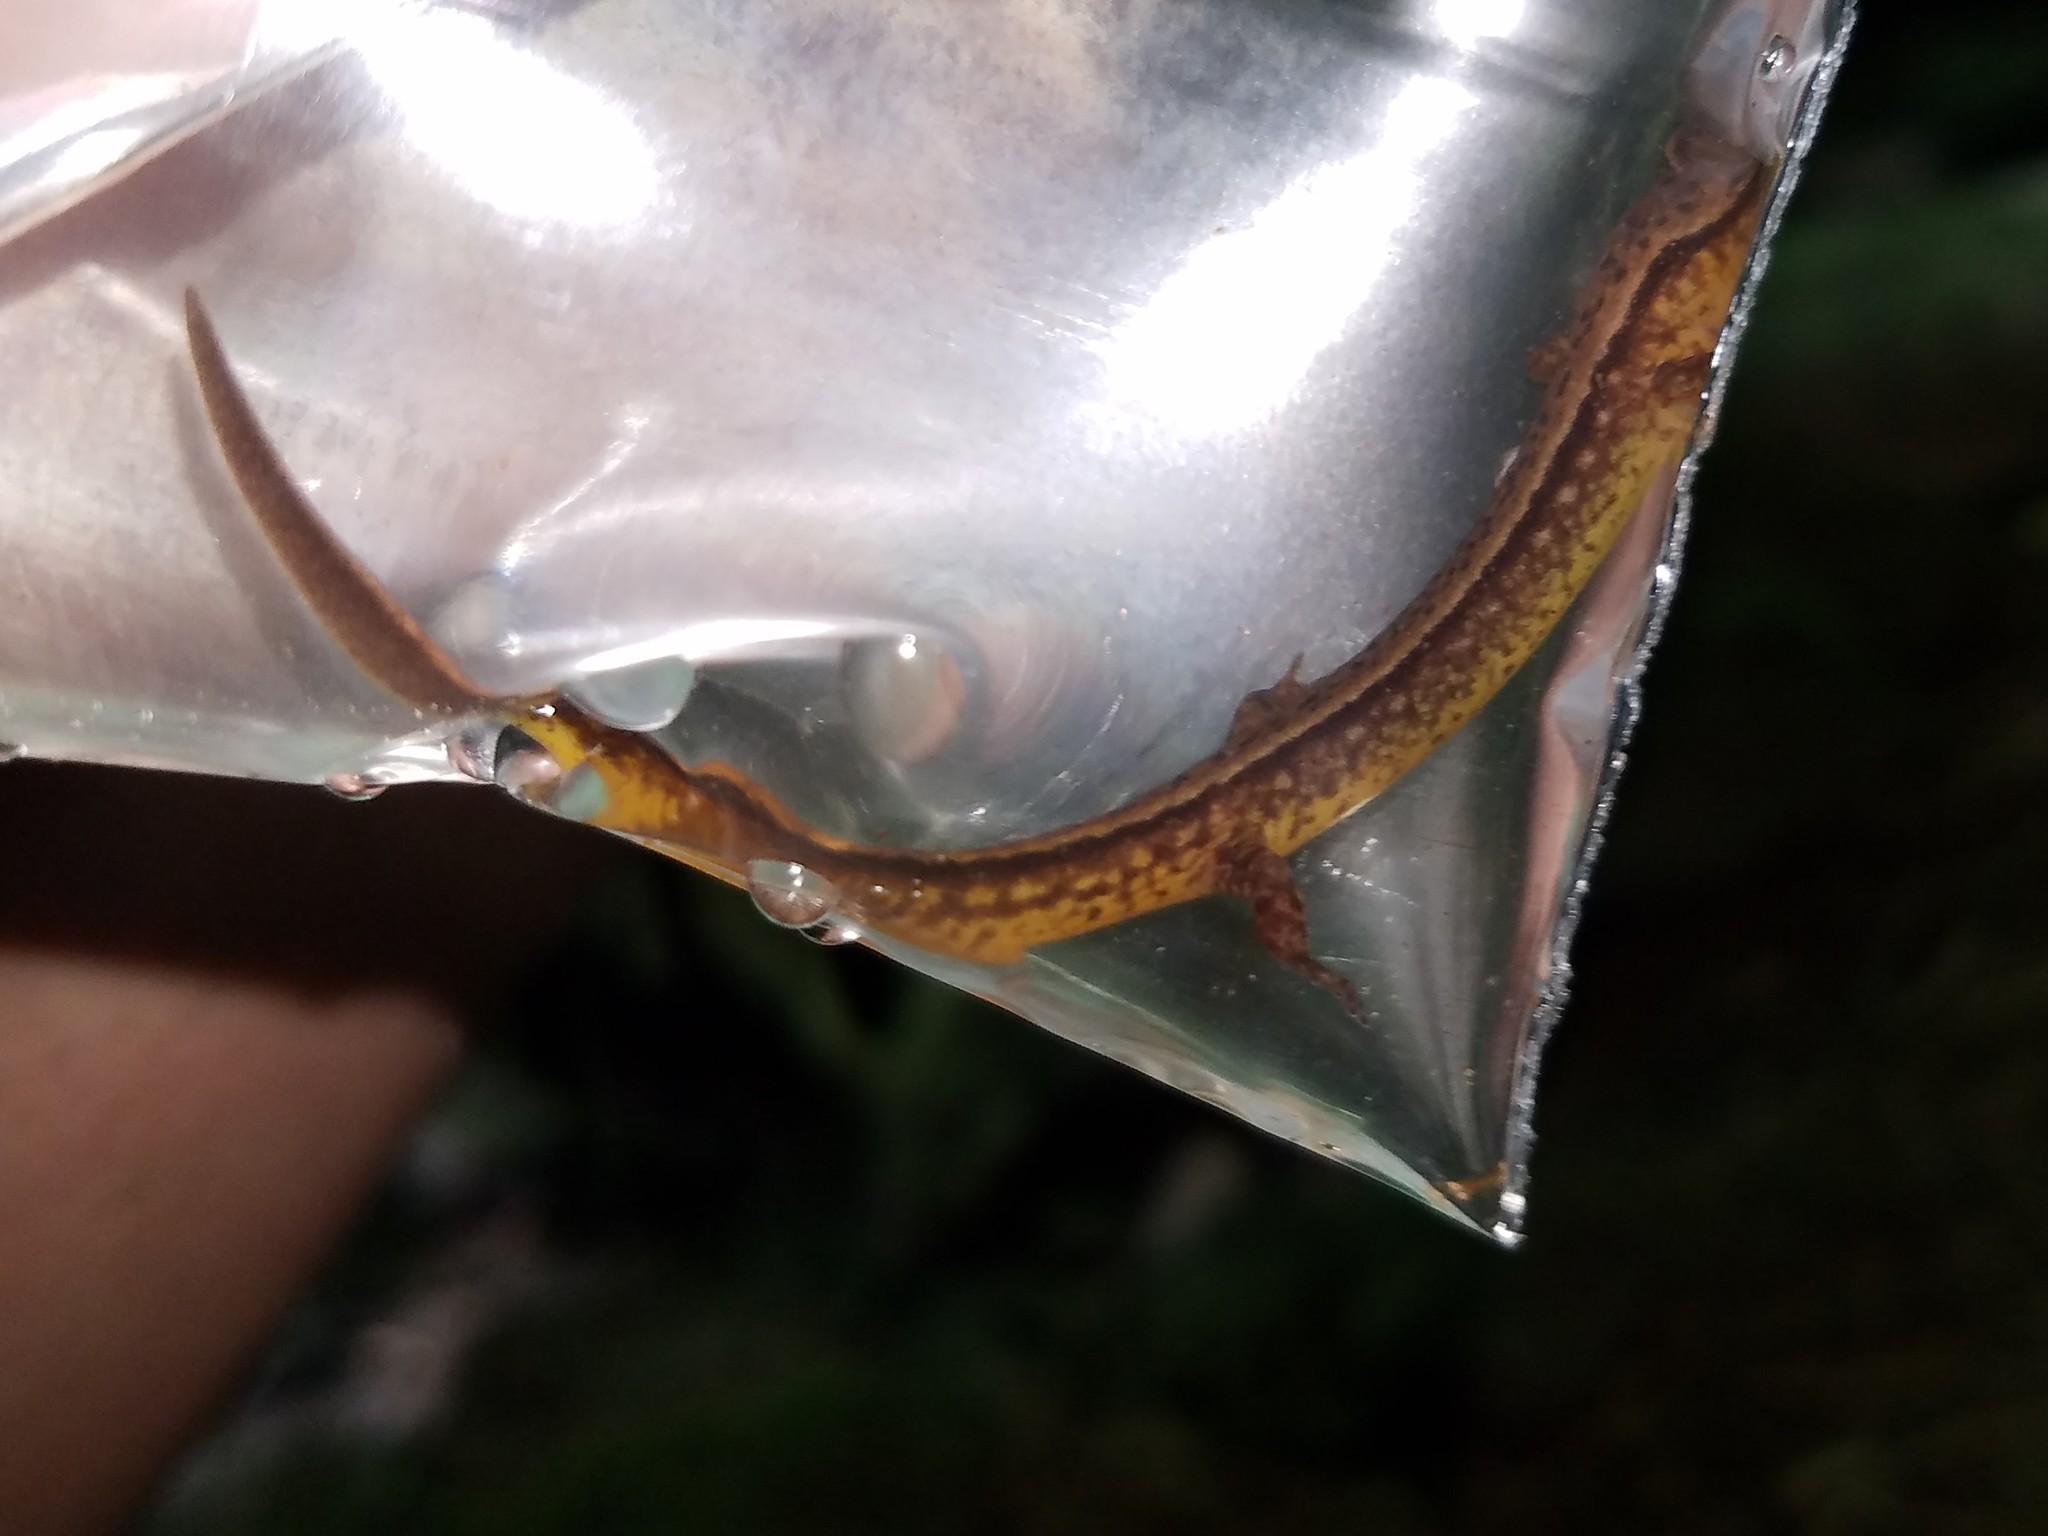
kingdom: Animalia
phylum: Chordata
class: Amphibia
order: Caudata
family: Plethodontidae
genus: Eurycea
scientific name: Eurycea cirrigera
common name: Southern two-lined salamander
